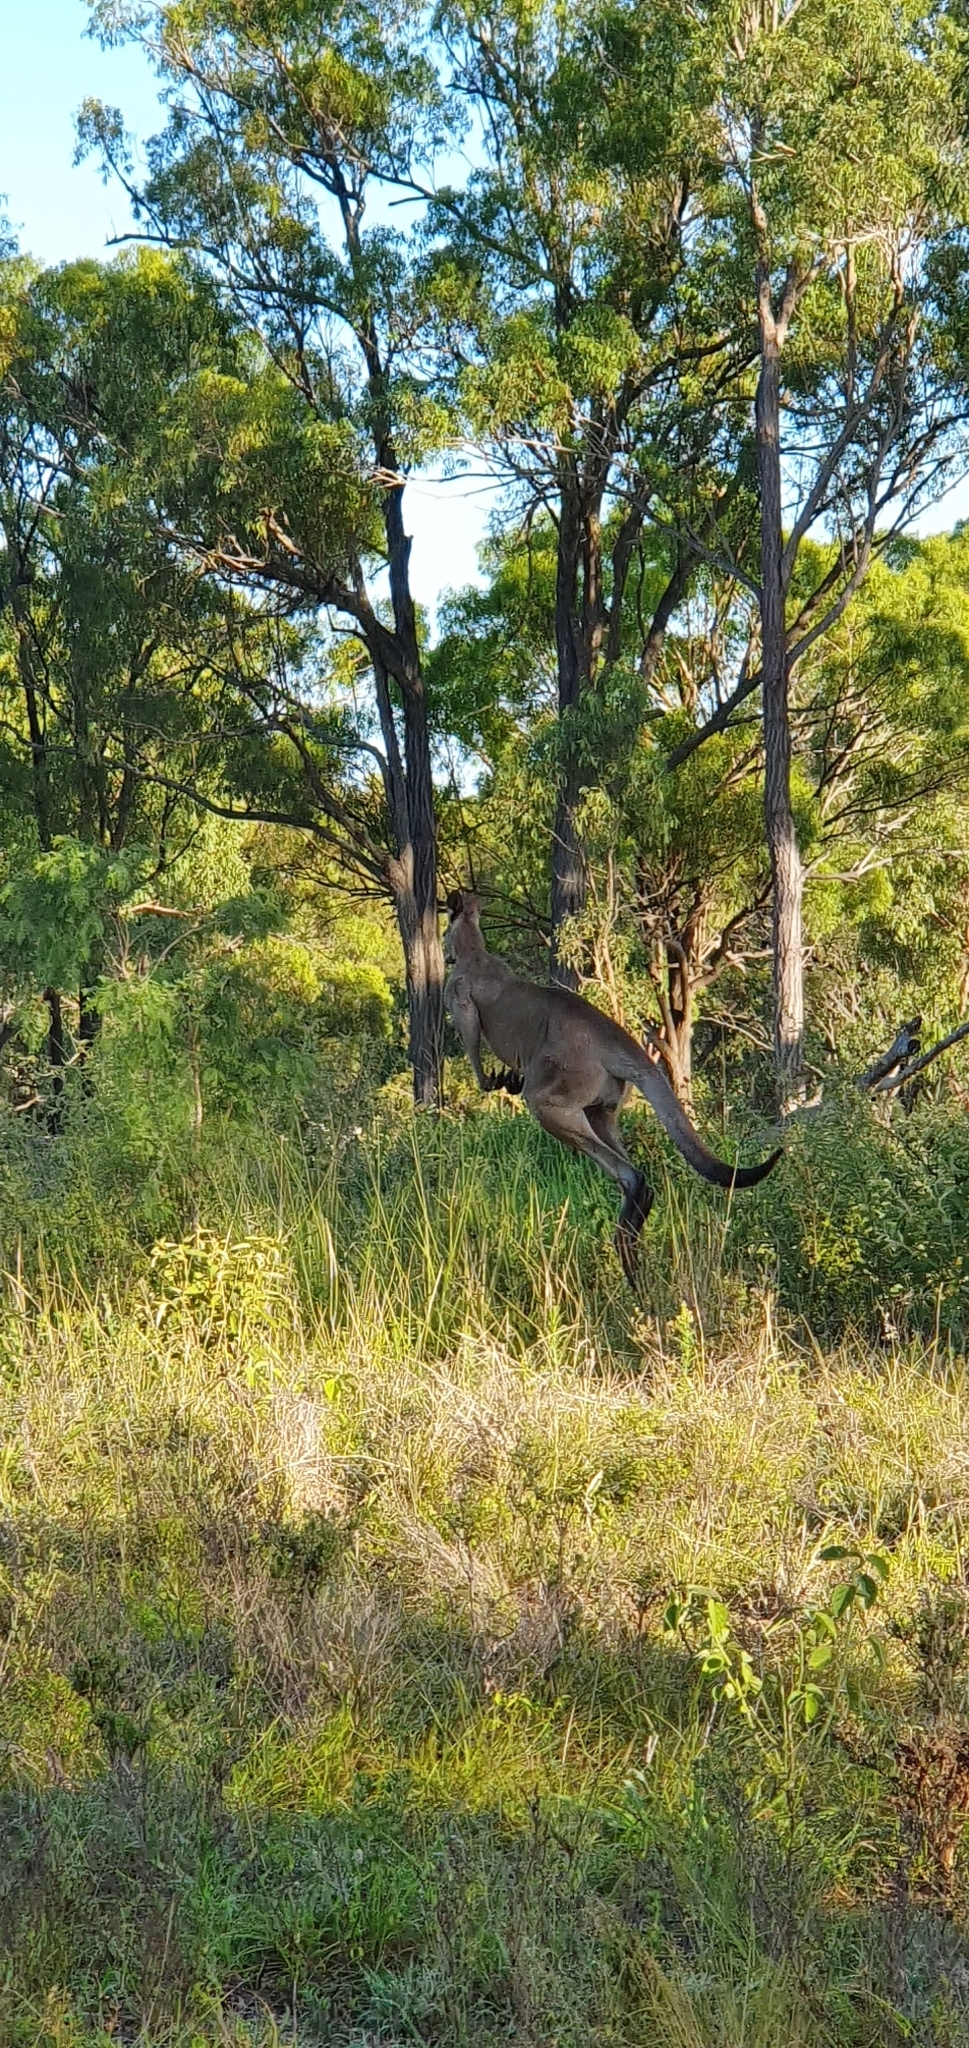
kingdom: Animalia
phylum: Chordata
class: Mammalia
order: Diprotodontia
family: Macropodidae
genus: Macropus
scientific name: Macropus giganteus
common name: Eastern grey kangaroo
